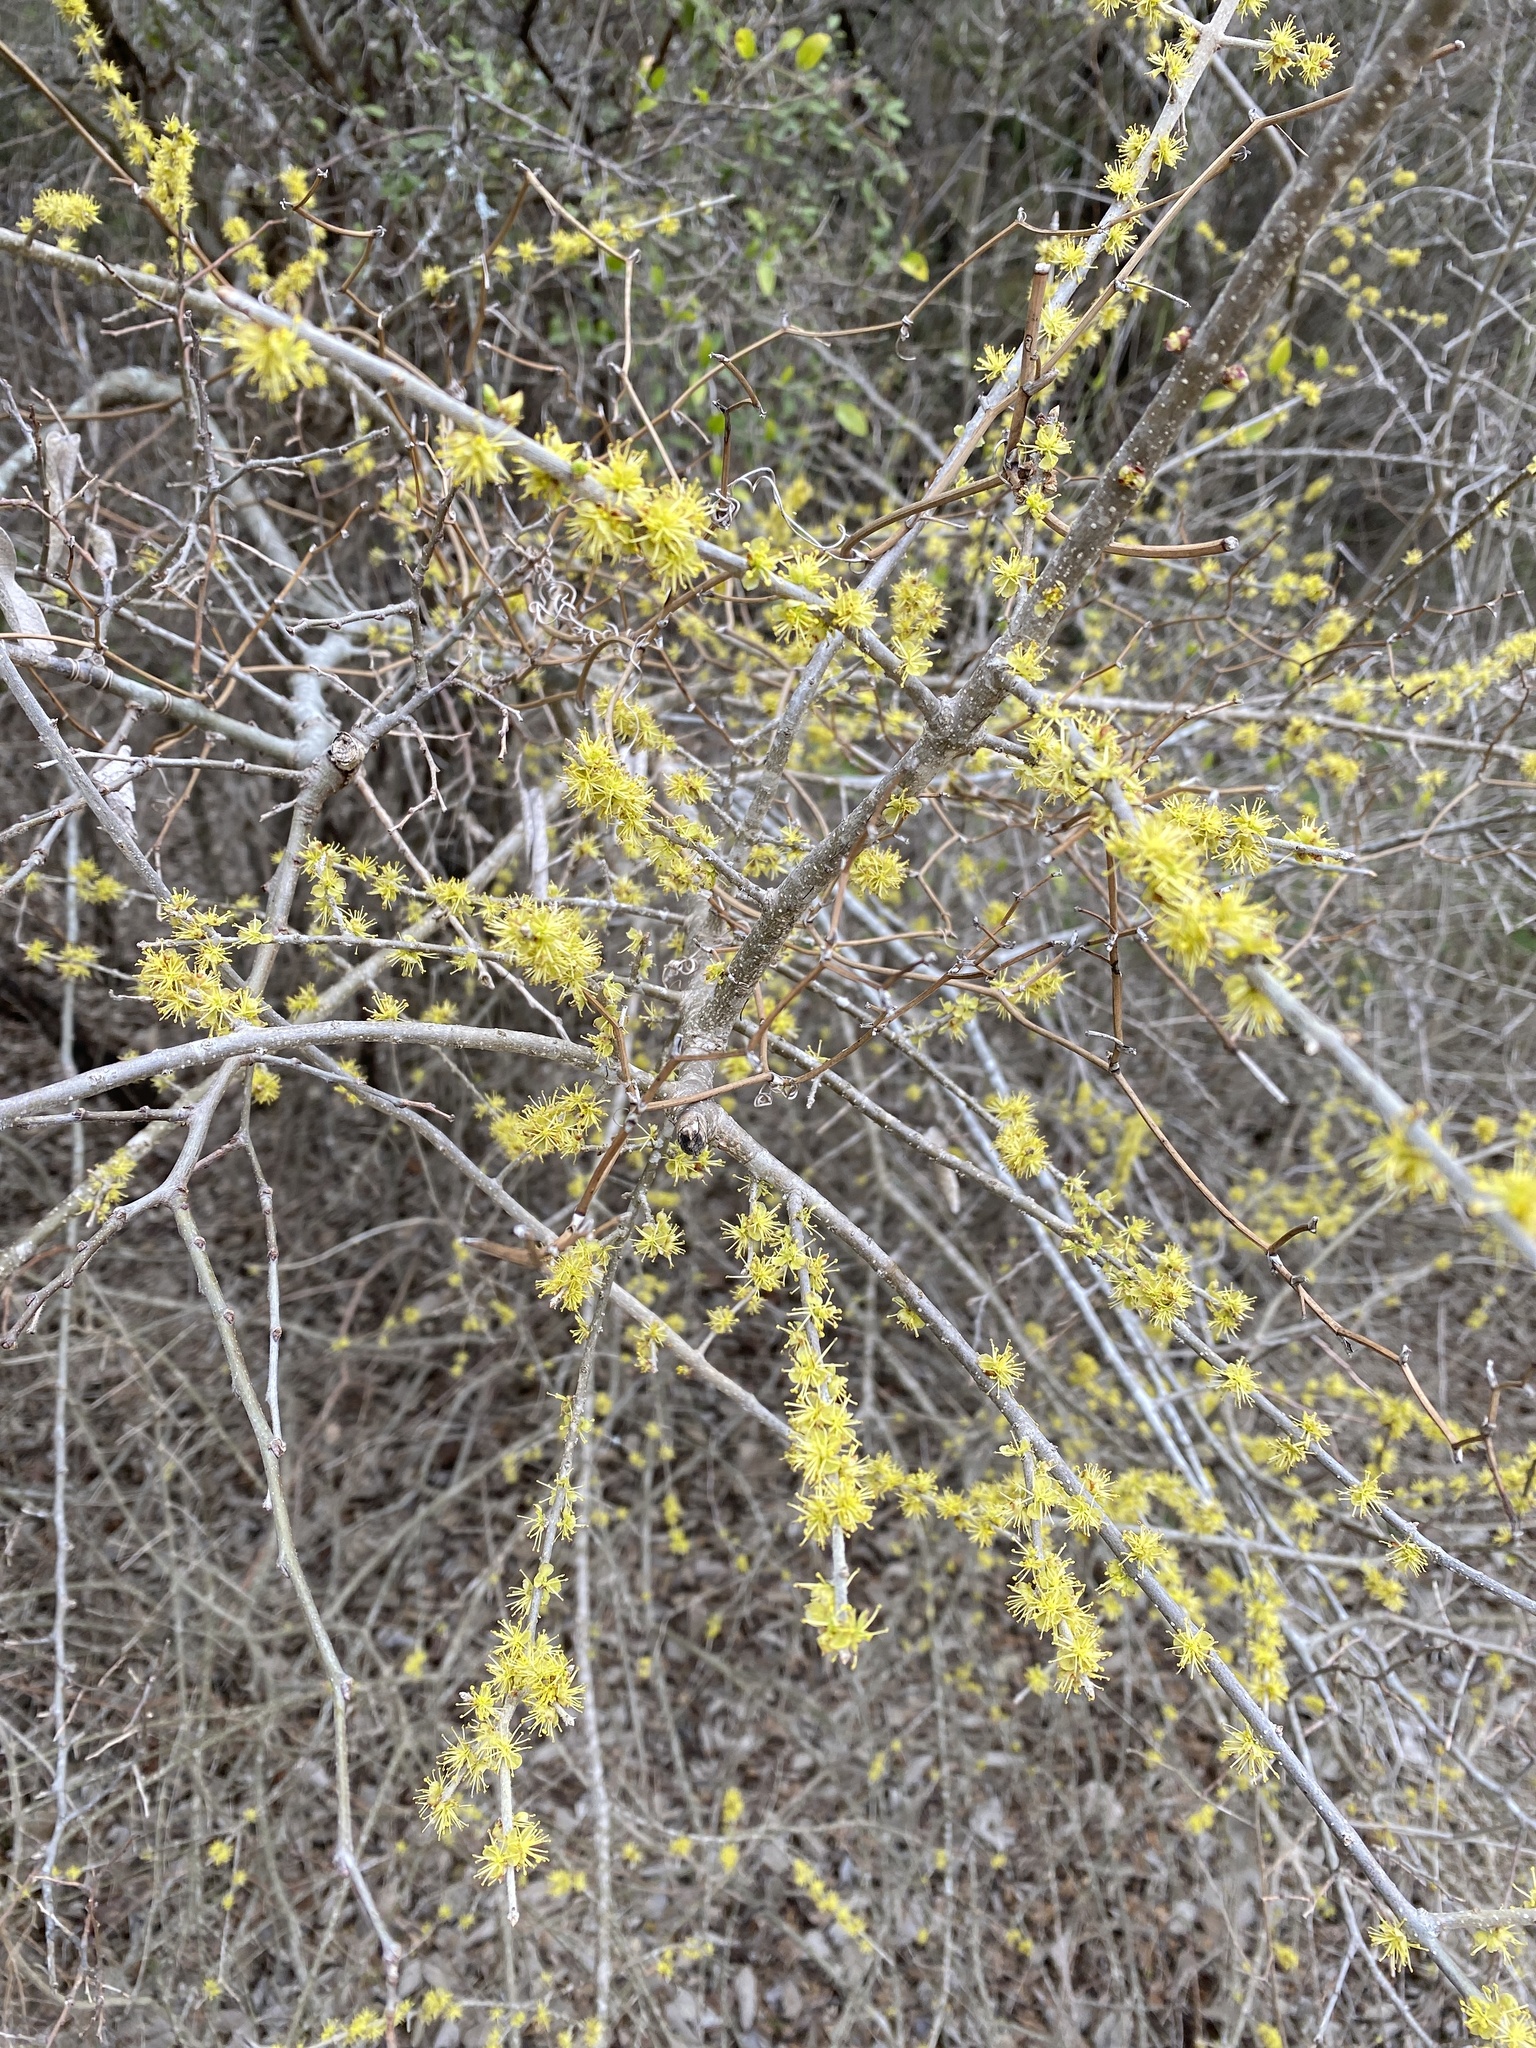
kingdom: Plantae
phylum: Tracheophyta
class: Magnoliopsida
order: Lamiales
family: Oleaceae
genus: Forestiera
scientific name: Forestiera pubescens
